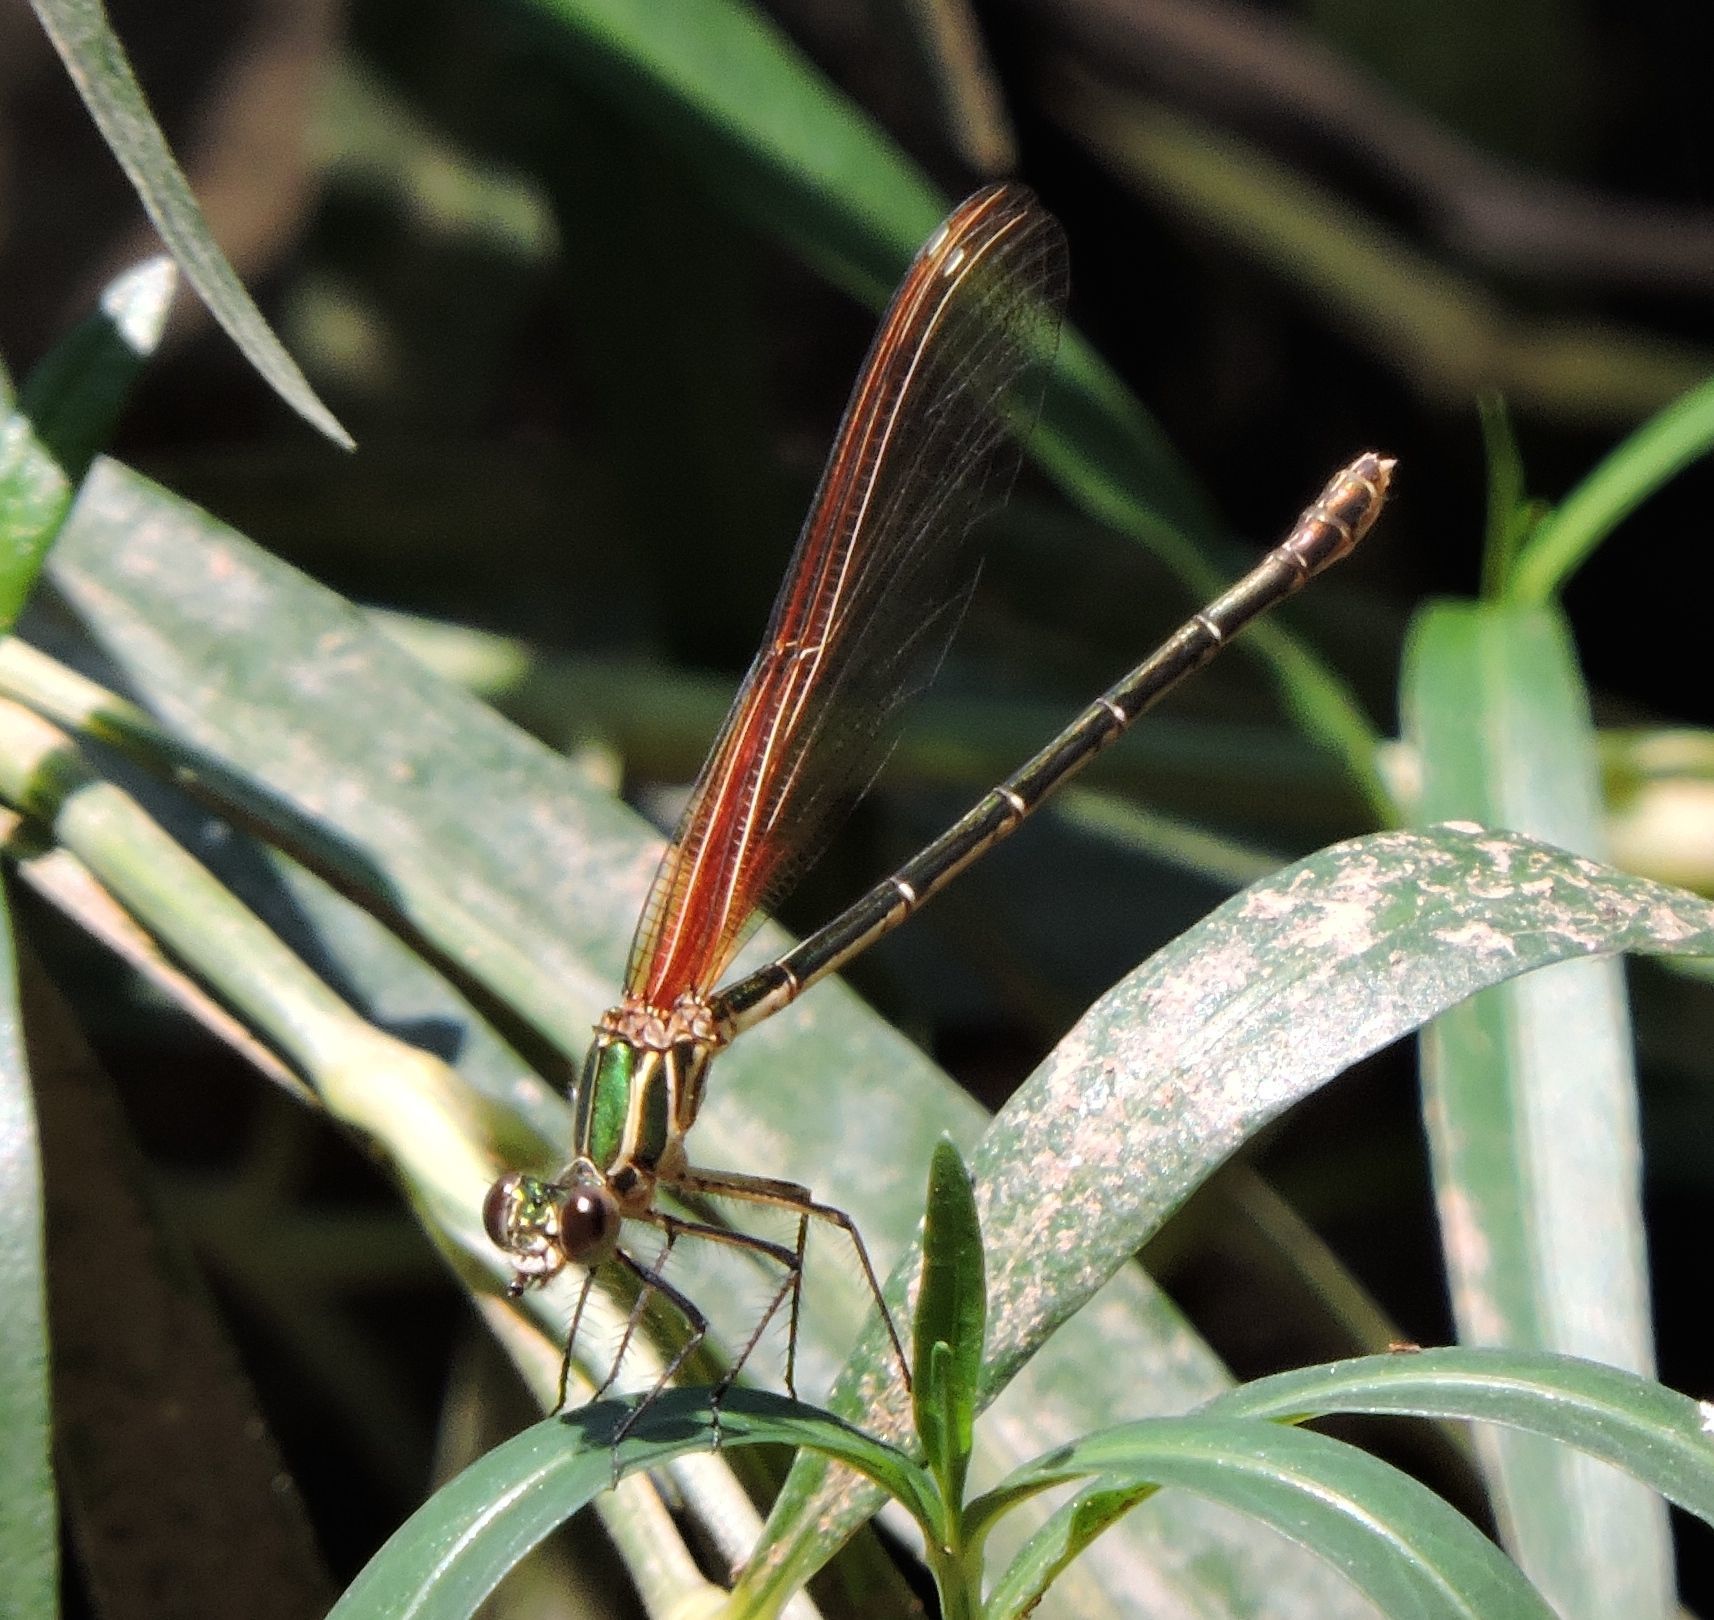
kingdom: Animalia
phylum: Arthropoda
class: Insecta
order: Odonata
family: Calopterygidae
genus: Hetaerina
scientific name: Hetaerina americana
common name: American rubyspot
